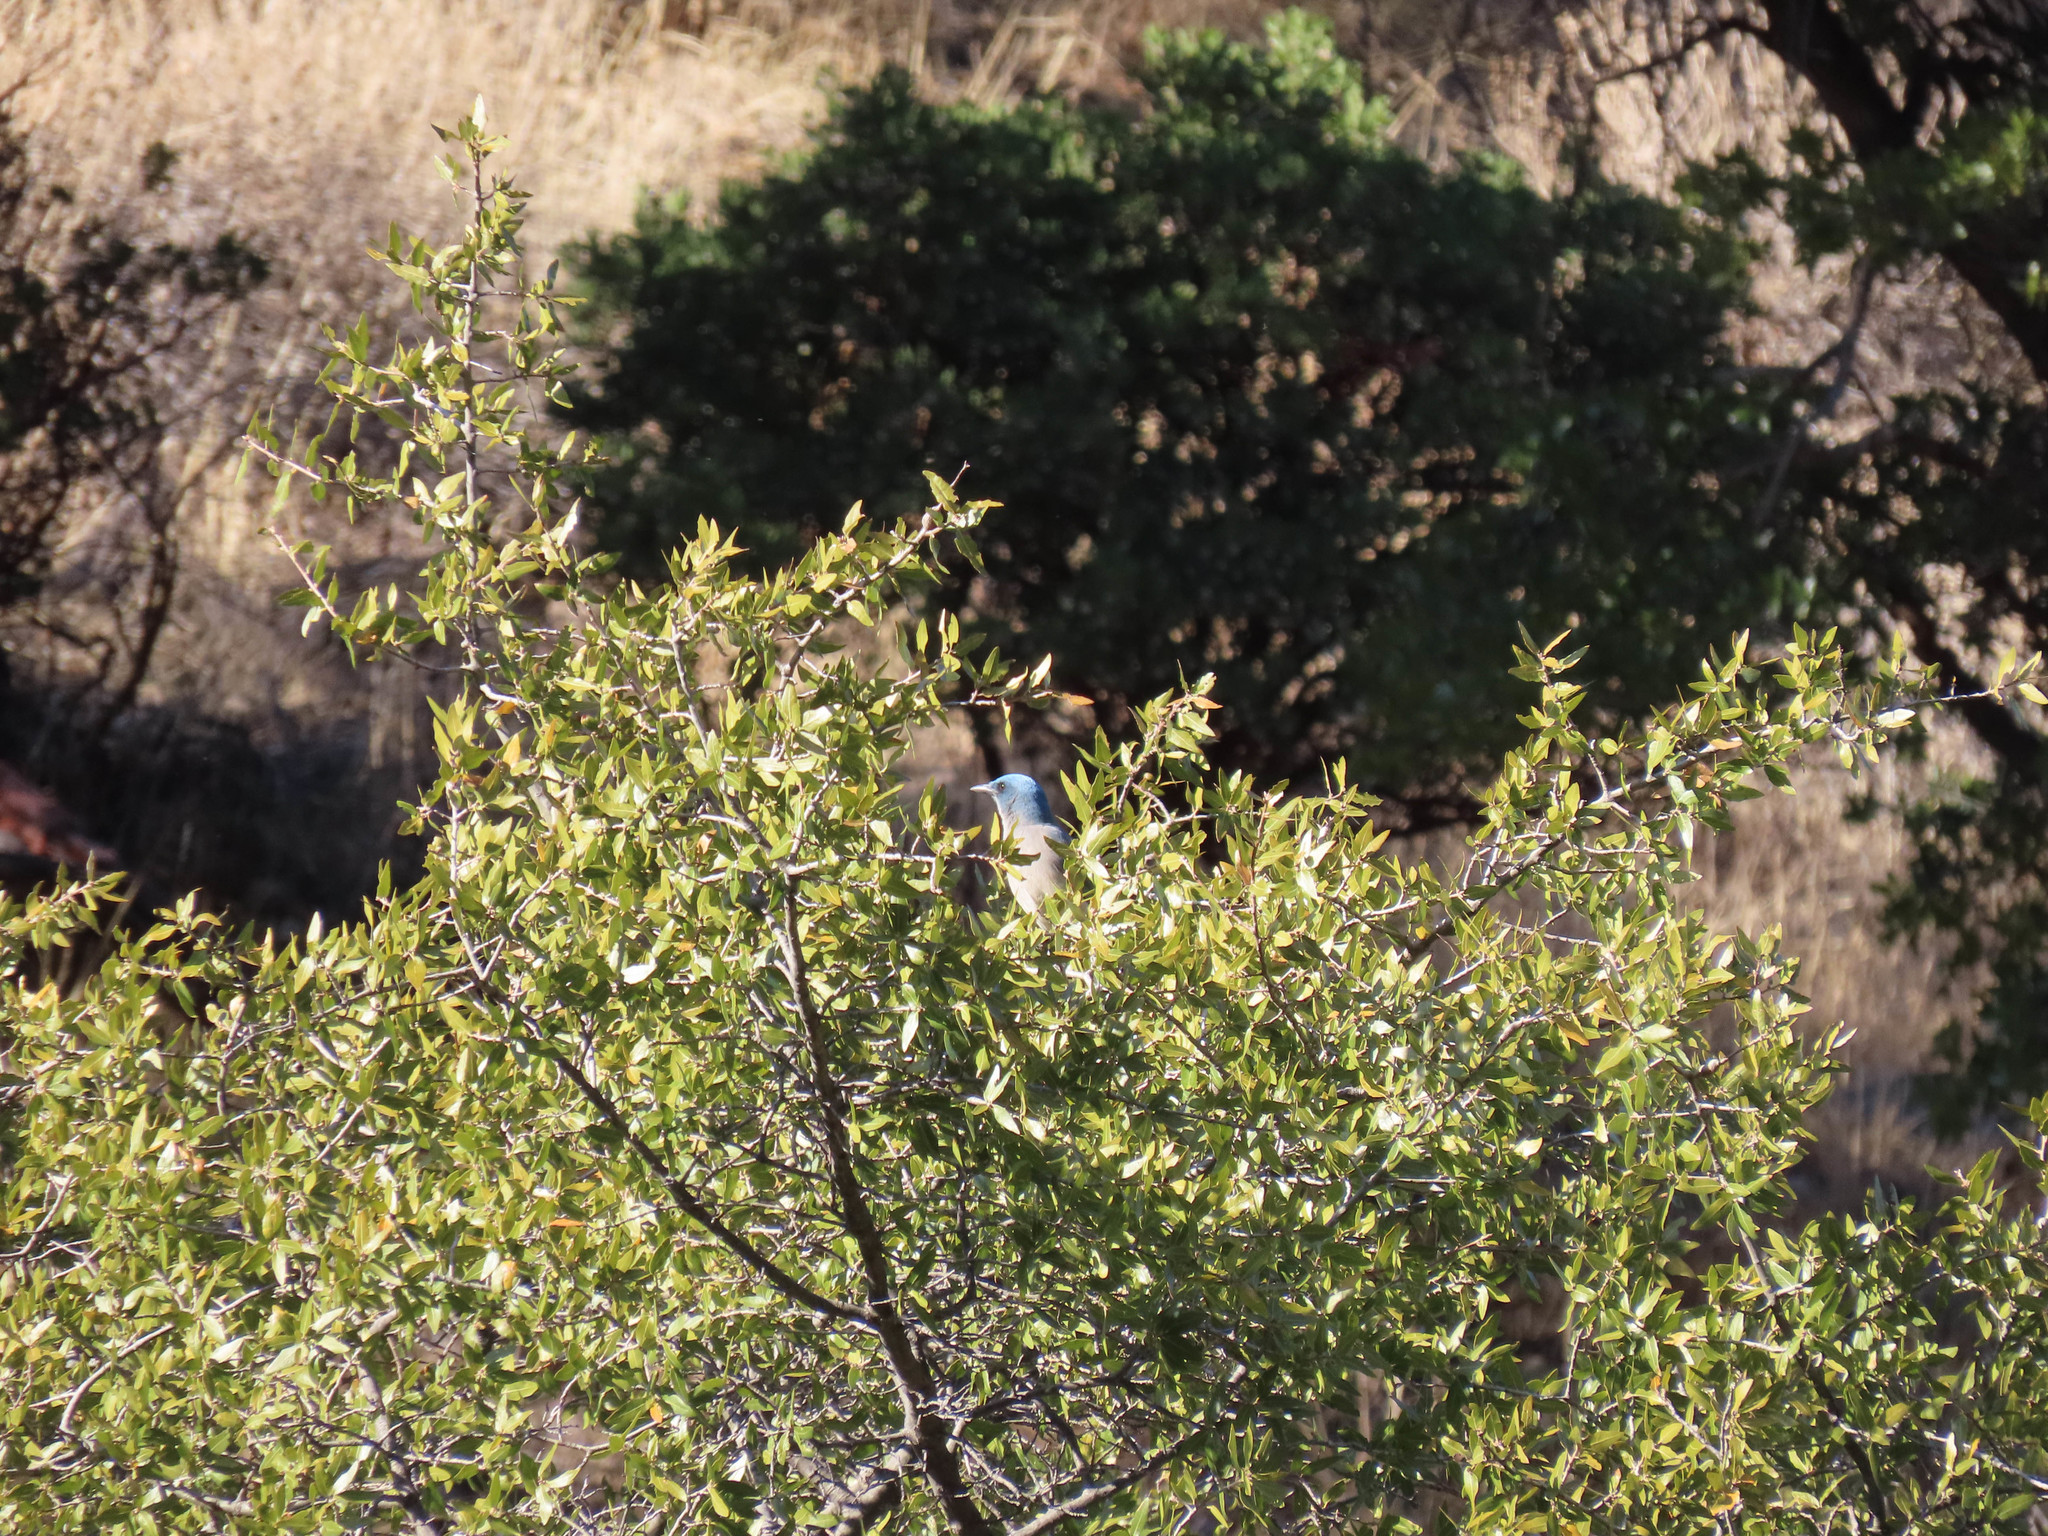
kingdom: Animalia
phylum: Chordata
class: Aves
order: Passeriformes
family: Corvidae
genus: Aphelocoma
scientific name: Aphelocoma wollweberi
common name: Mexican jay
